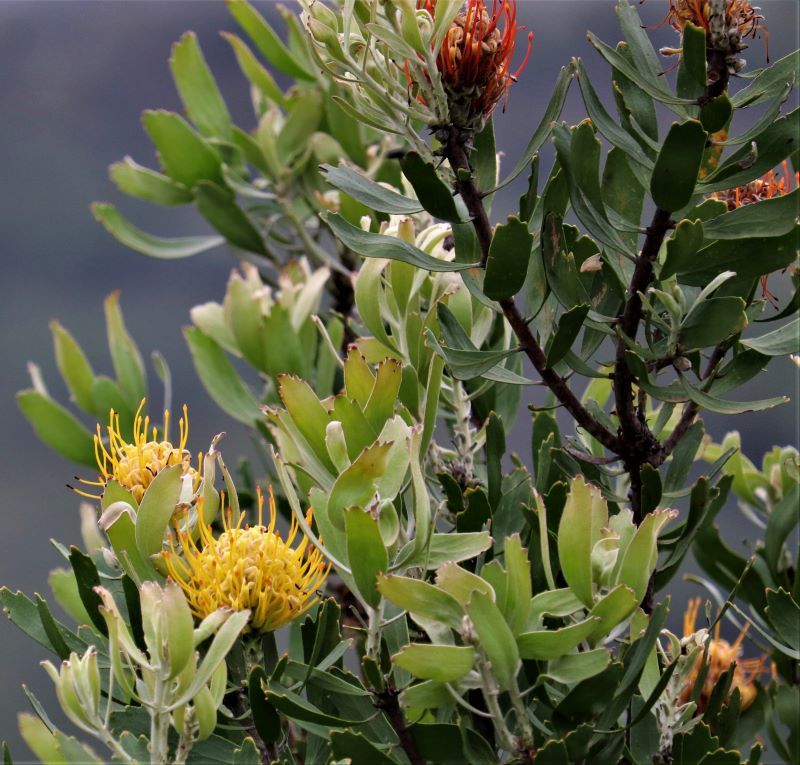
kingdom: Plantae
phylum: Tracheophyta
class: Magnoliopsida
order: Proteales
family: Proteaceae
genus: Leucospermum
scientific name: Leucospermum cuneiforme
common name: Common pincushion
